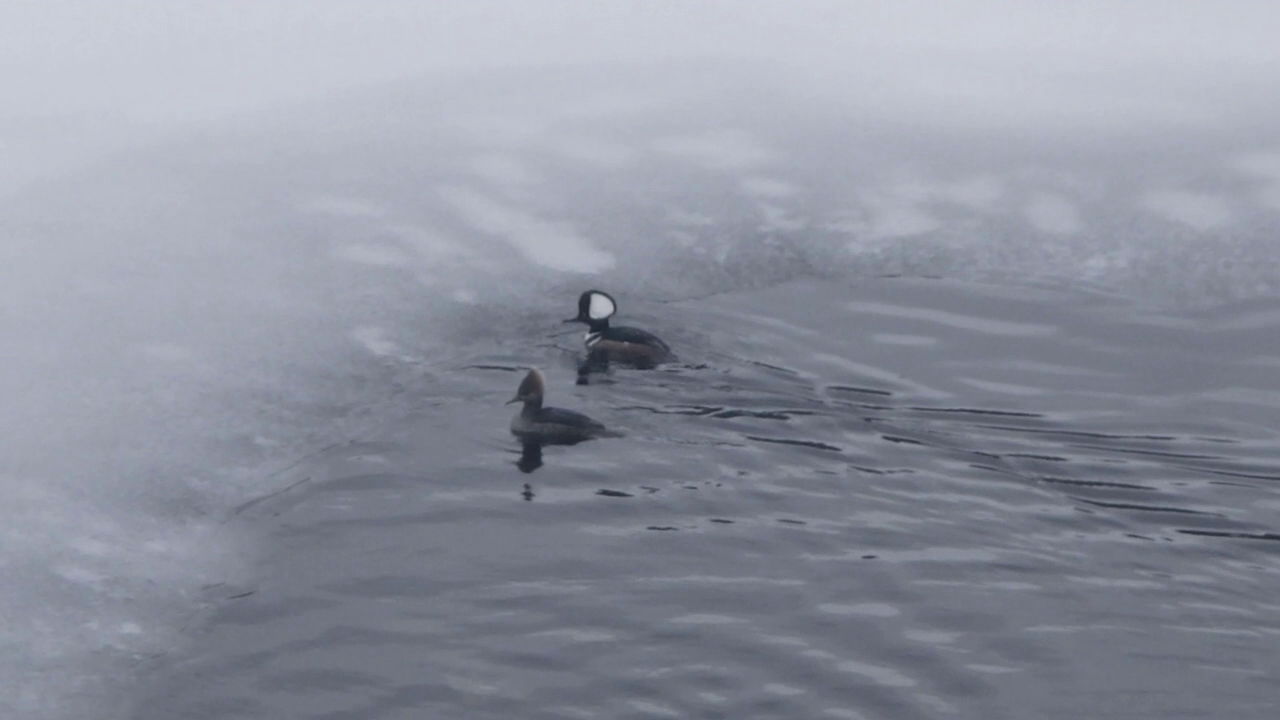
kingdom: Animalia
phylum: Chordata
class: Aves
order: Anseriformes
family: Anatidae
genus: Lophodytes
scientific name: Lophodytes cucullatus
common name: Hooded merganser
